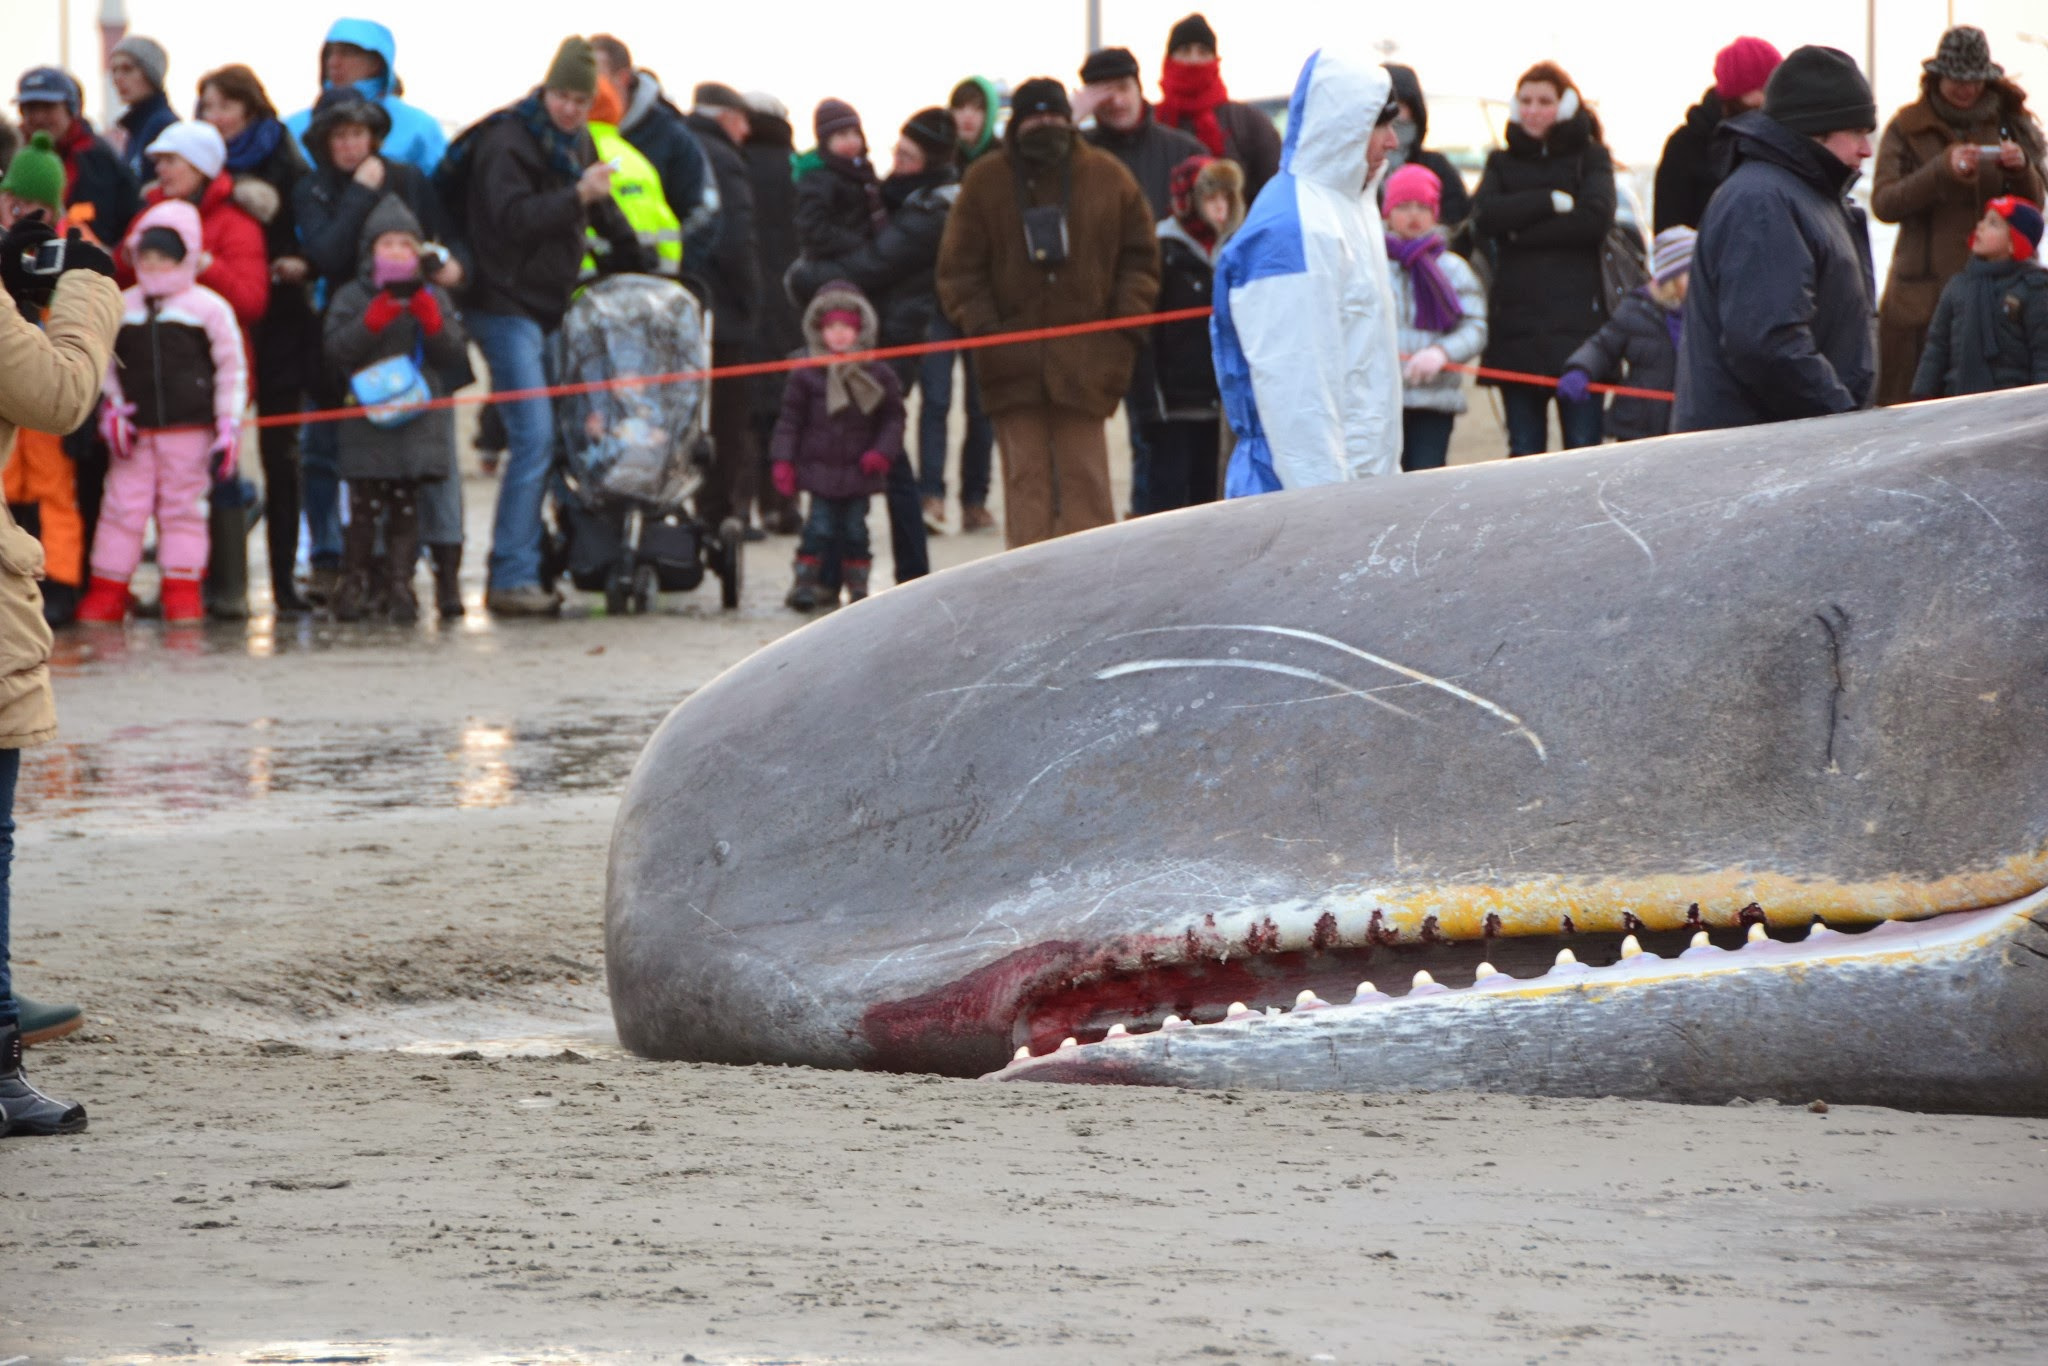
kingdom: Animalia
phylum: Chordata
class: Mammalia
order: Cetacea
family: Physeteridae
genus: Physeter
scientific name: Physeter macrocephalus
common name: Sperm whale
